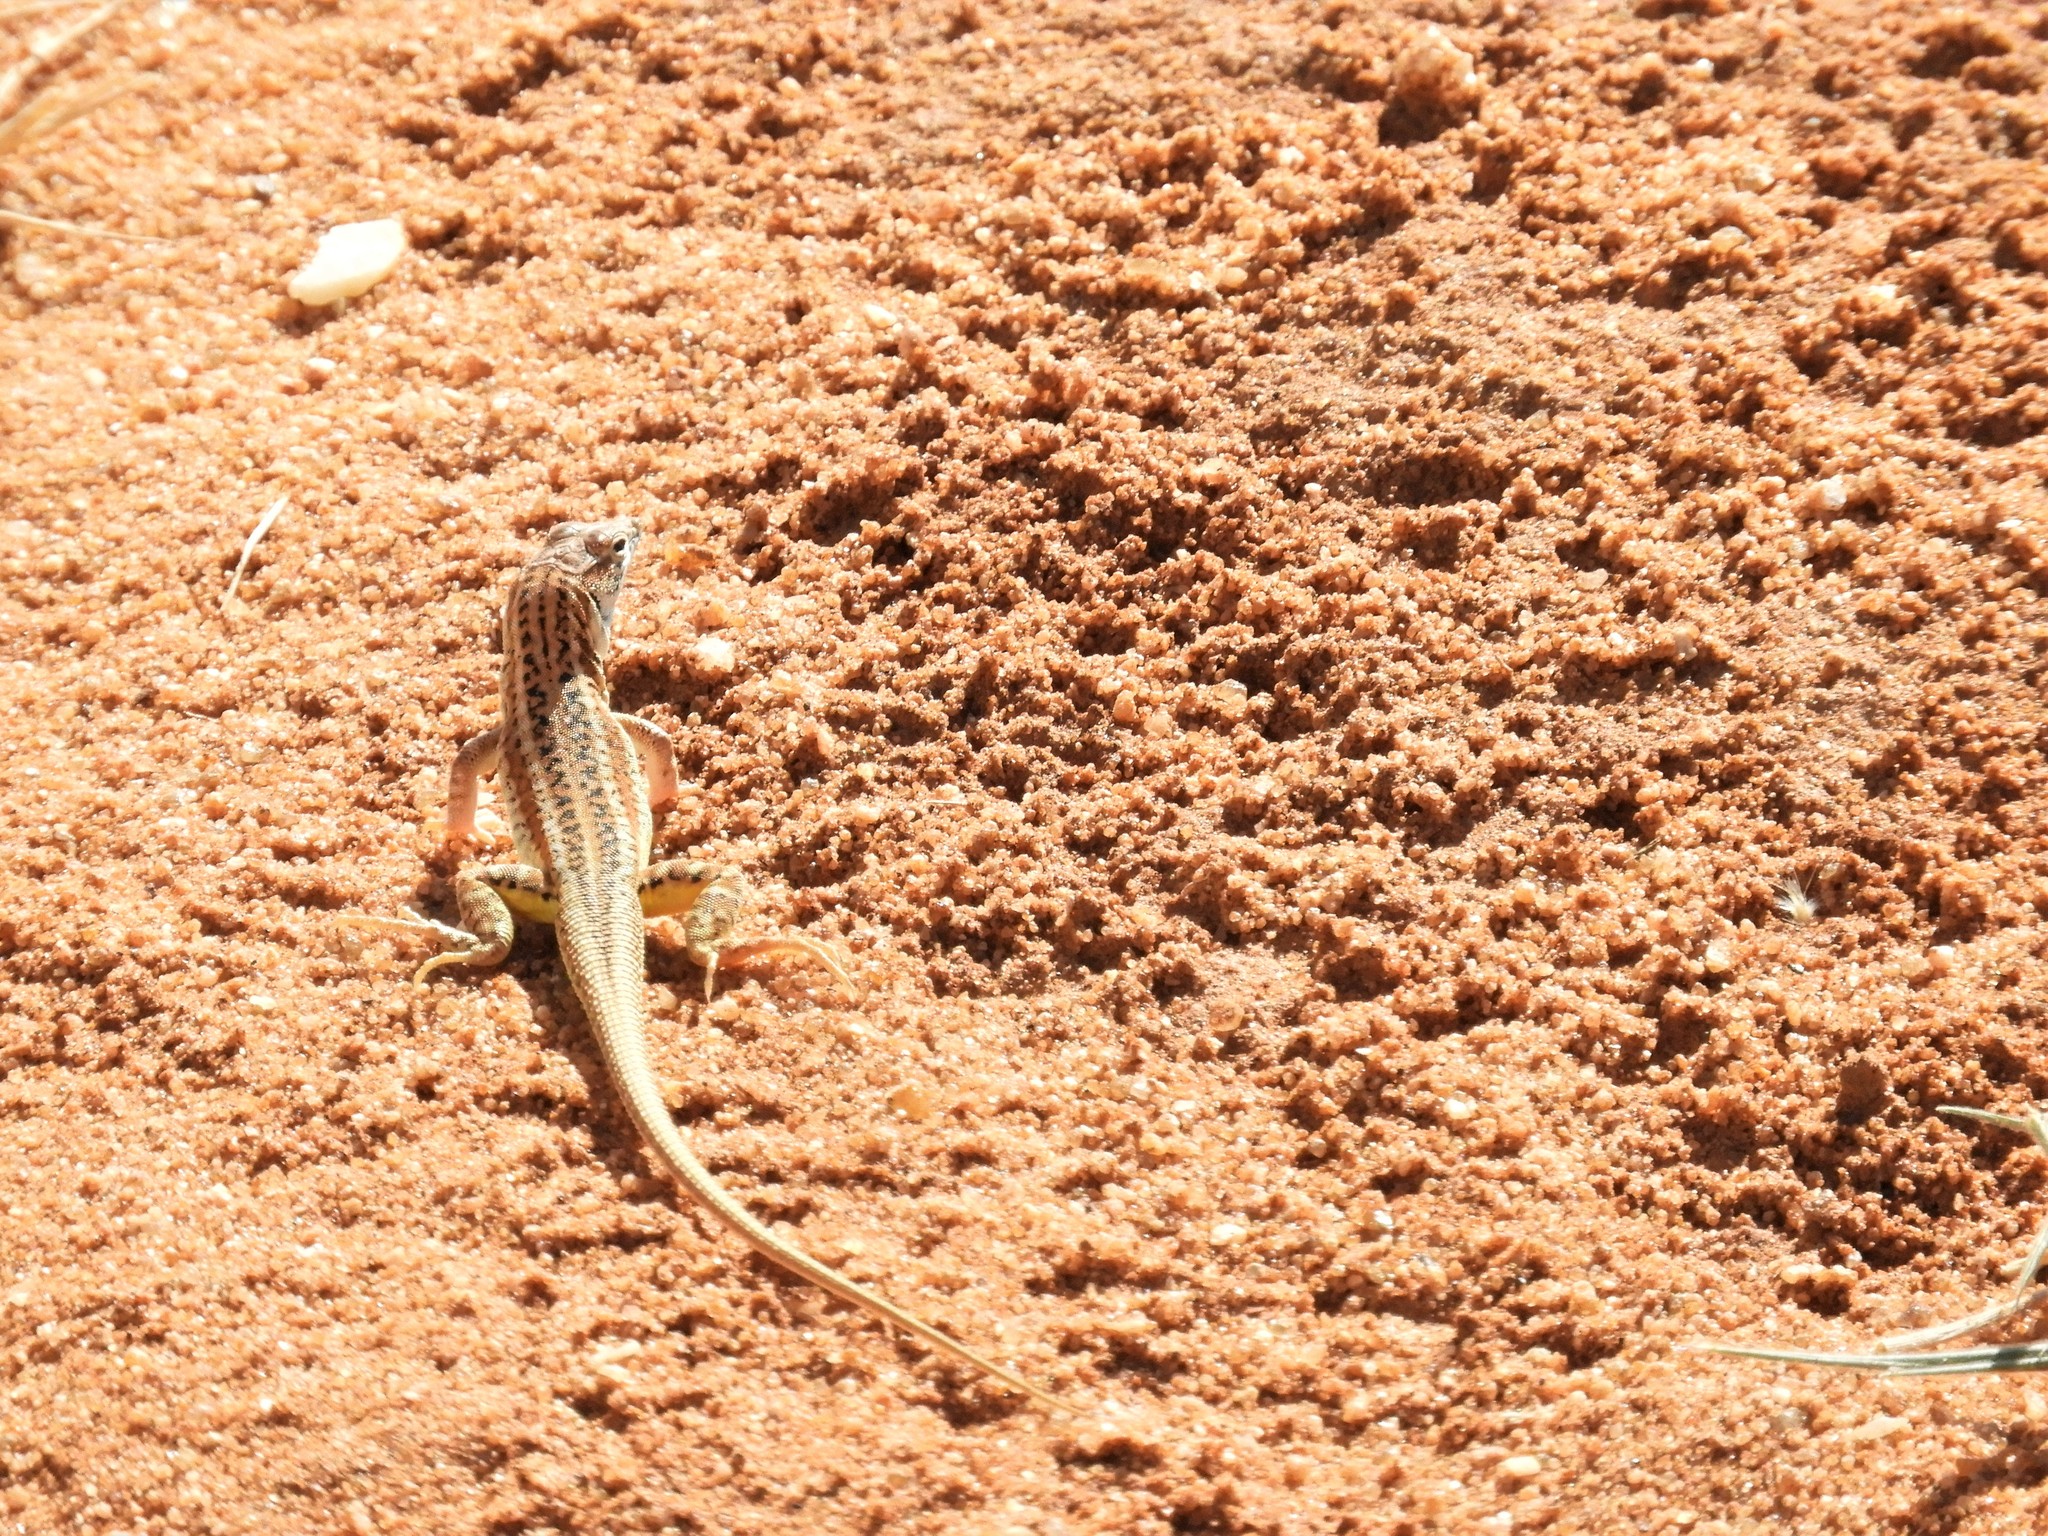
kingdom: Animalia
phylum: Chordata
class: Squamata
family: Lacertidae
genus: Meroles
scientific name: Meroles suborbitalis
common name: Spotted sand lizard
